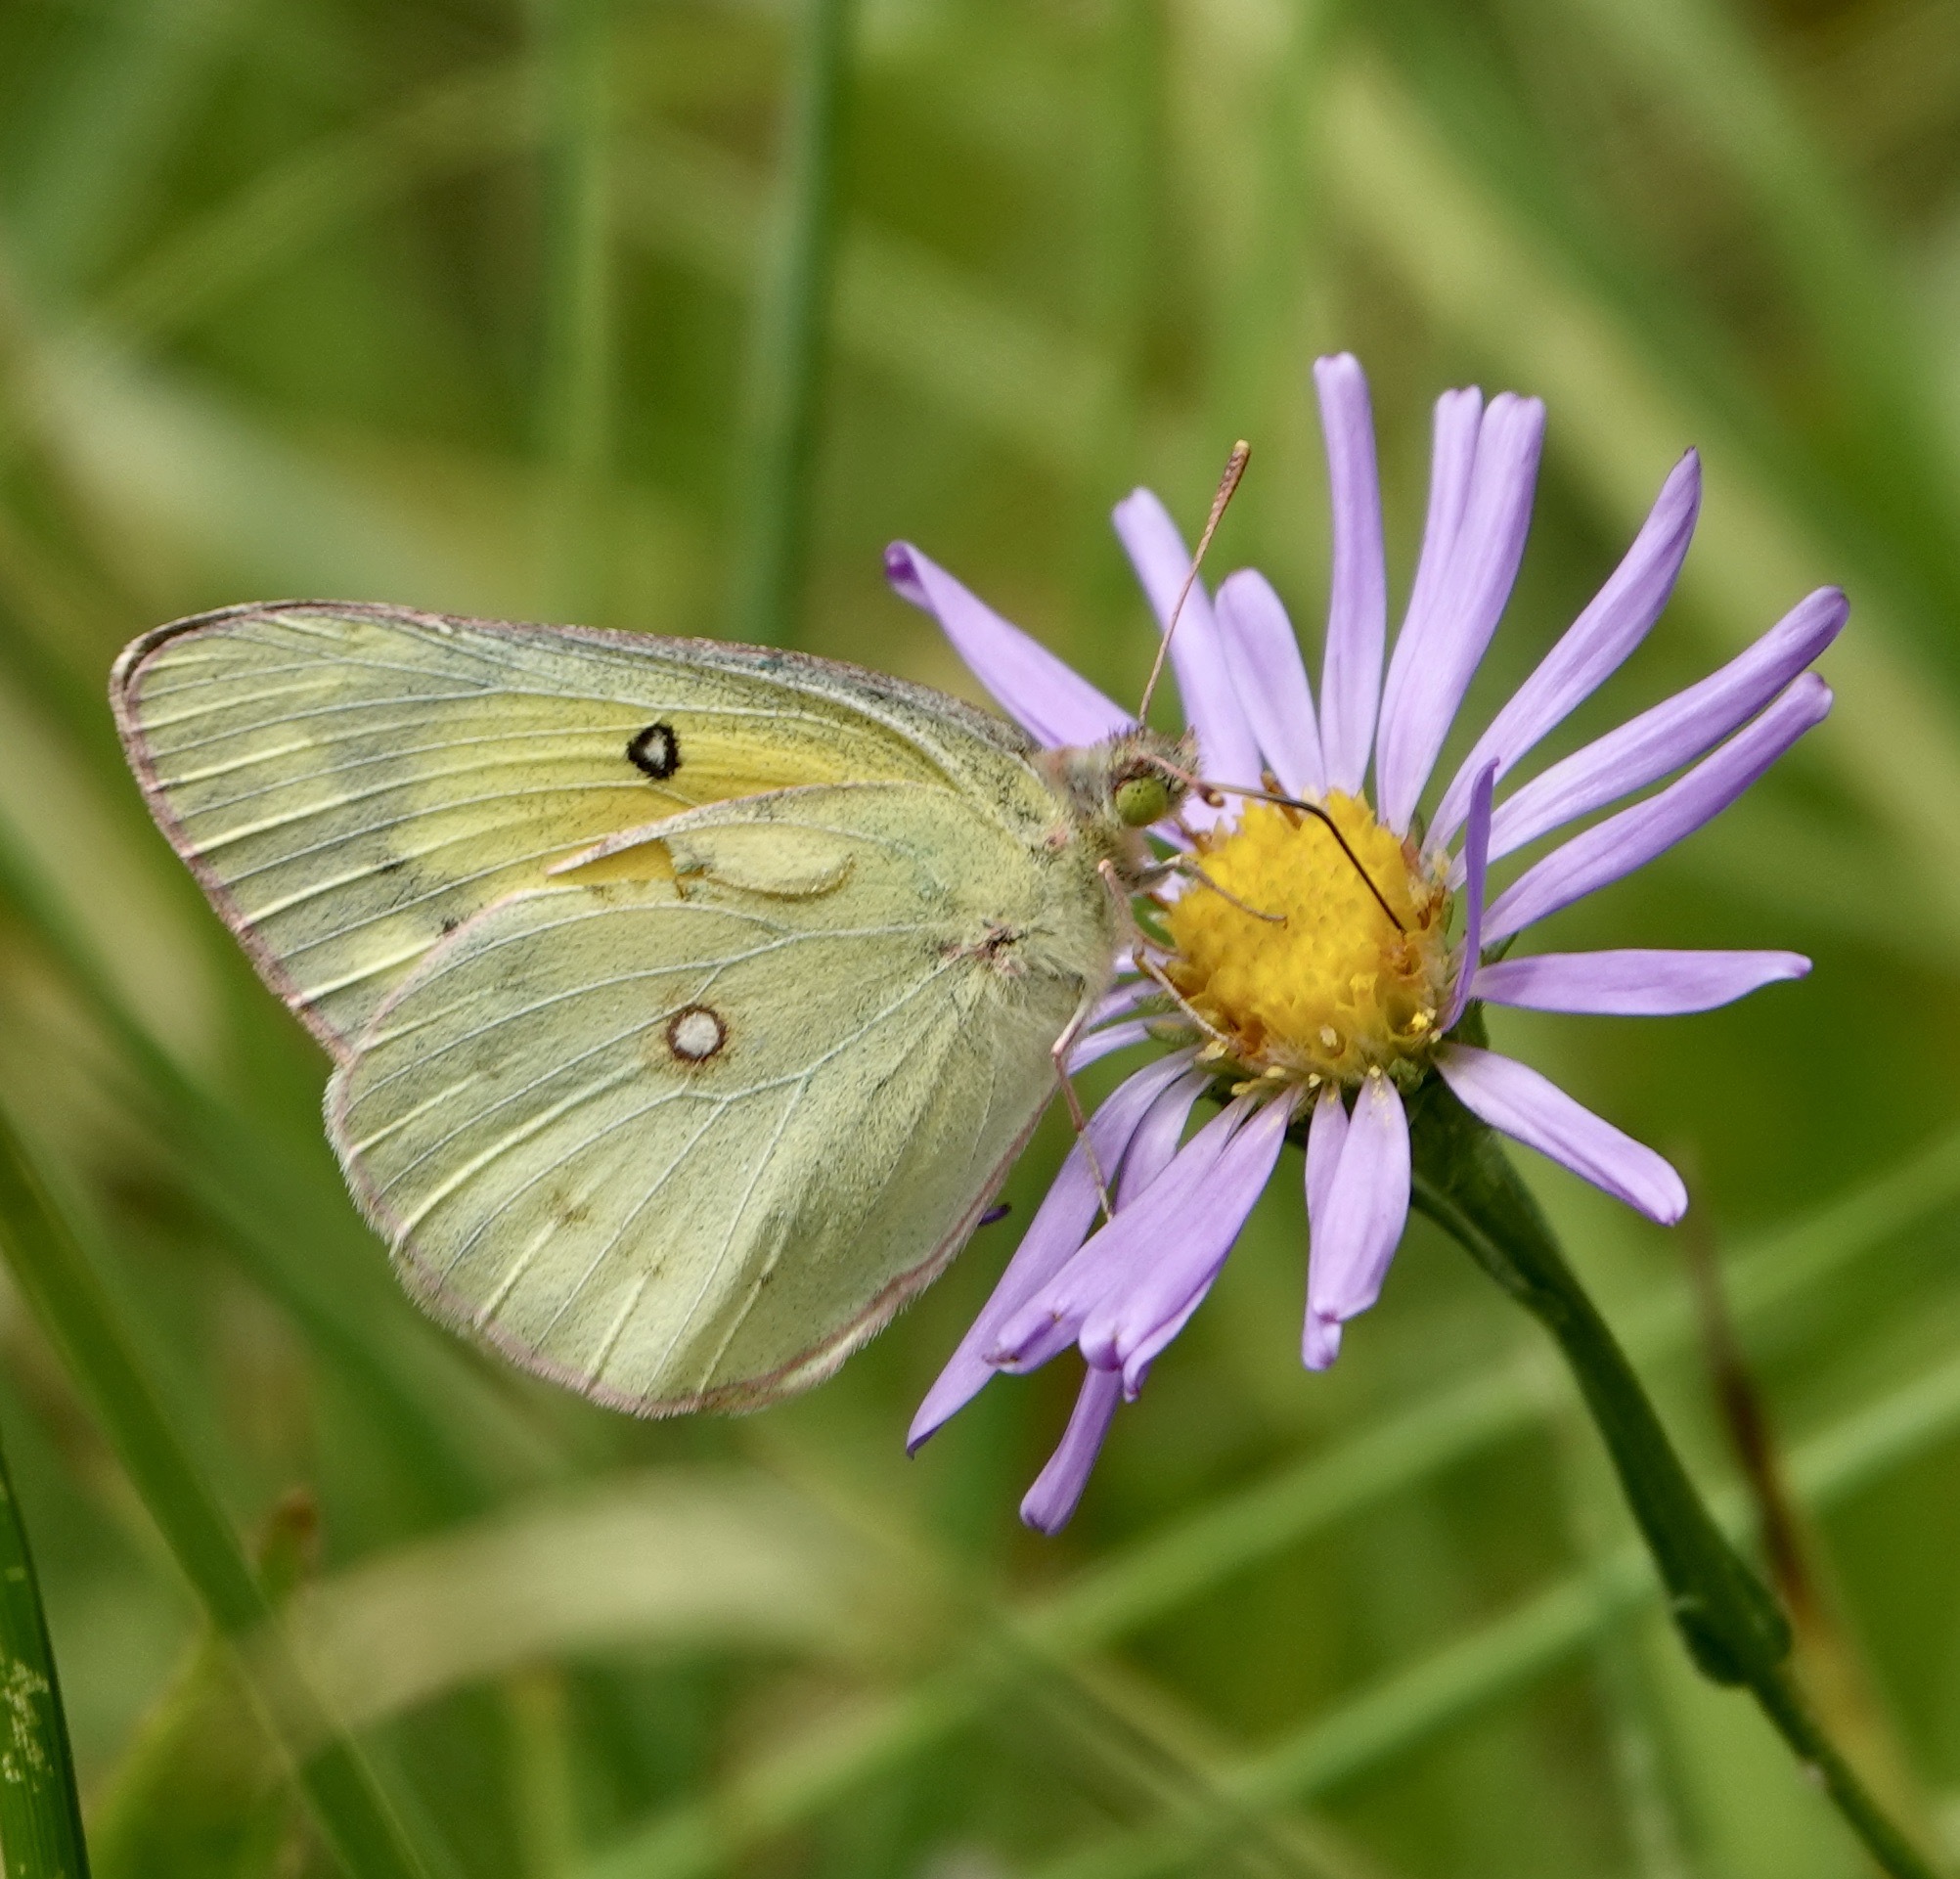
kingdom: Animalia
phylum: Arthropoda
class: Insecta
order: Lepidoptera
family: Pieridae
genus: Colias
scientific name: Colias eurytheme
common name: Alfalfa butterfly
